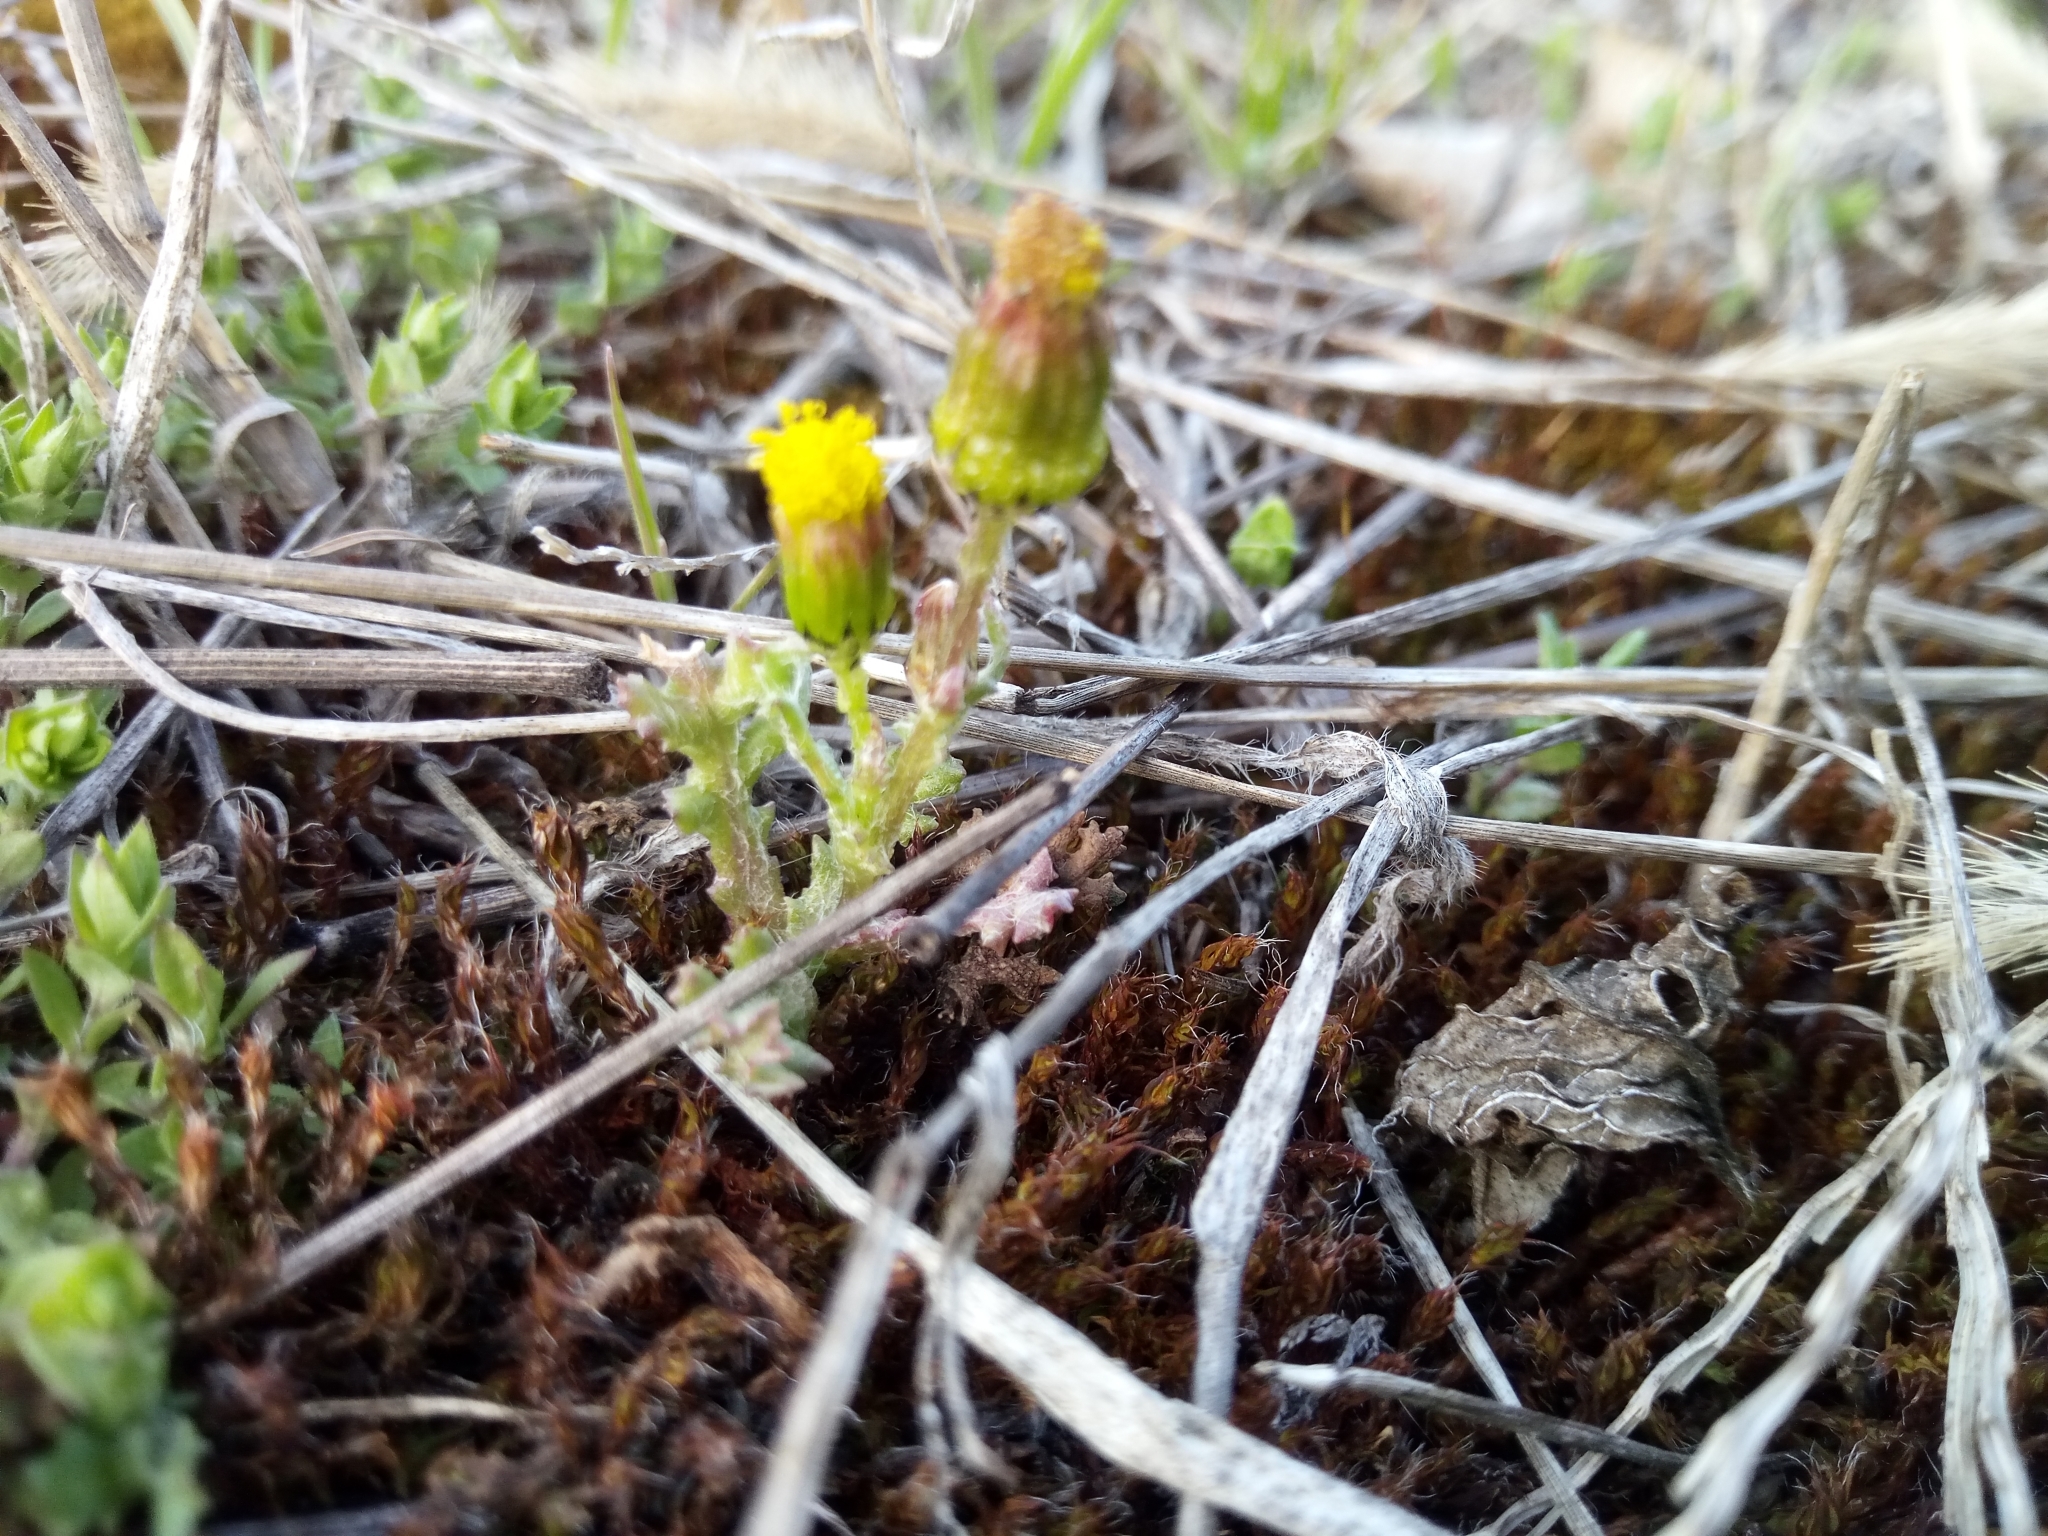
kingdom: Plantae
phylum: Tracheophyta
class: Magnoliopsida
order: Asterales
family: Asteraceae
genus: Senecio
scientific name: Senecio vulgaris
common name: Old-man-in-the-spring
